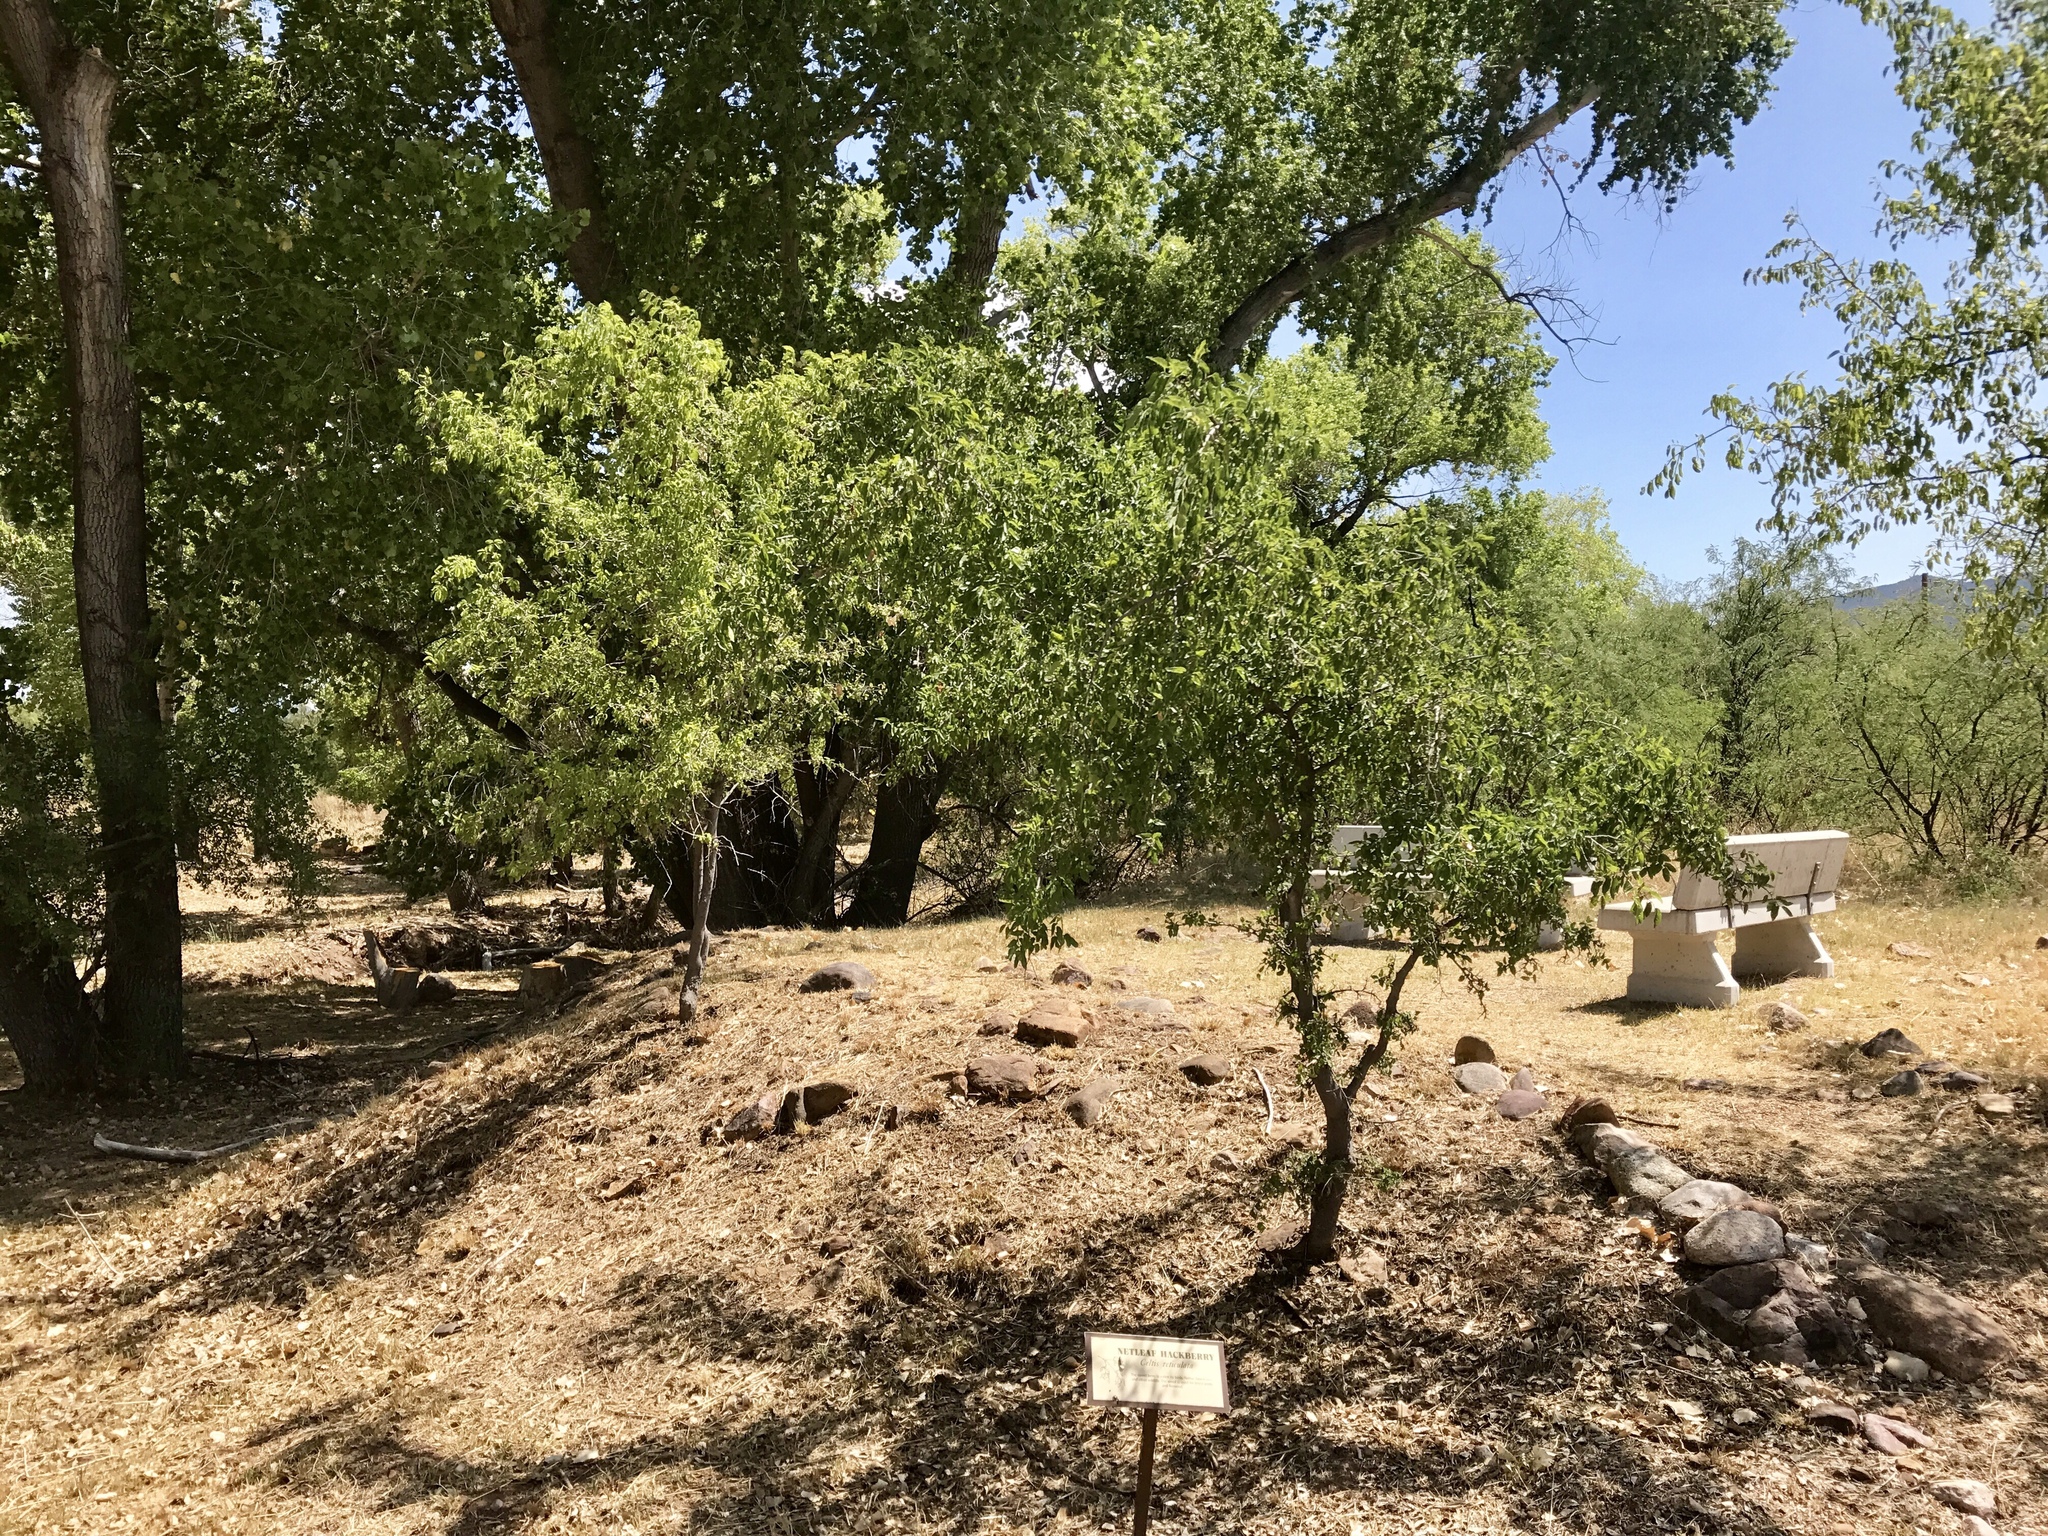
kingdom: Plantae
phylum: Tracheophyta
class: Magnoliopsida
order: Rosales
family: Cannabaceae
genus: Celtis
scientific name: Celtis reticulata
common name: Netleaf hackberry
